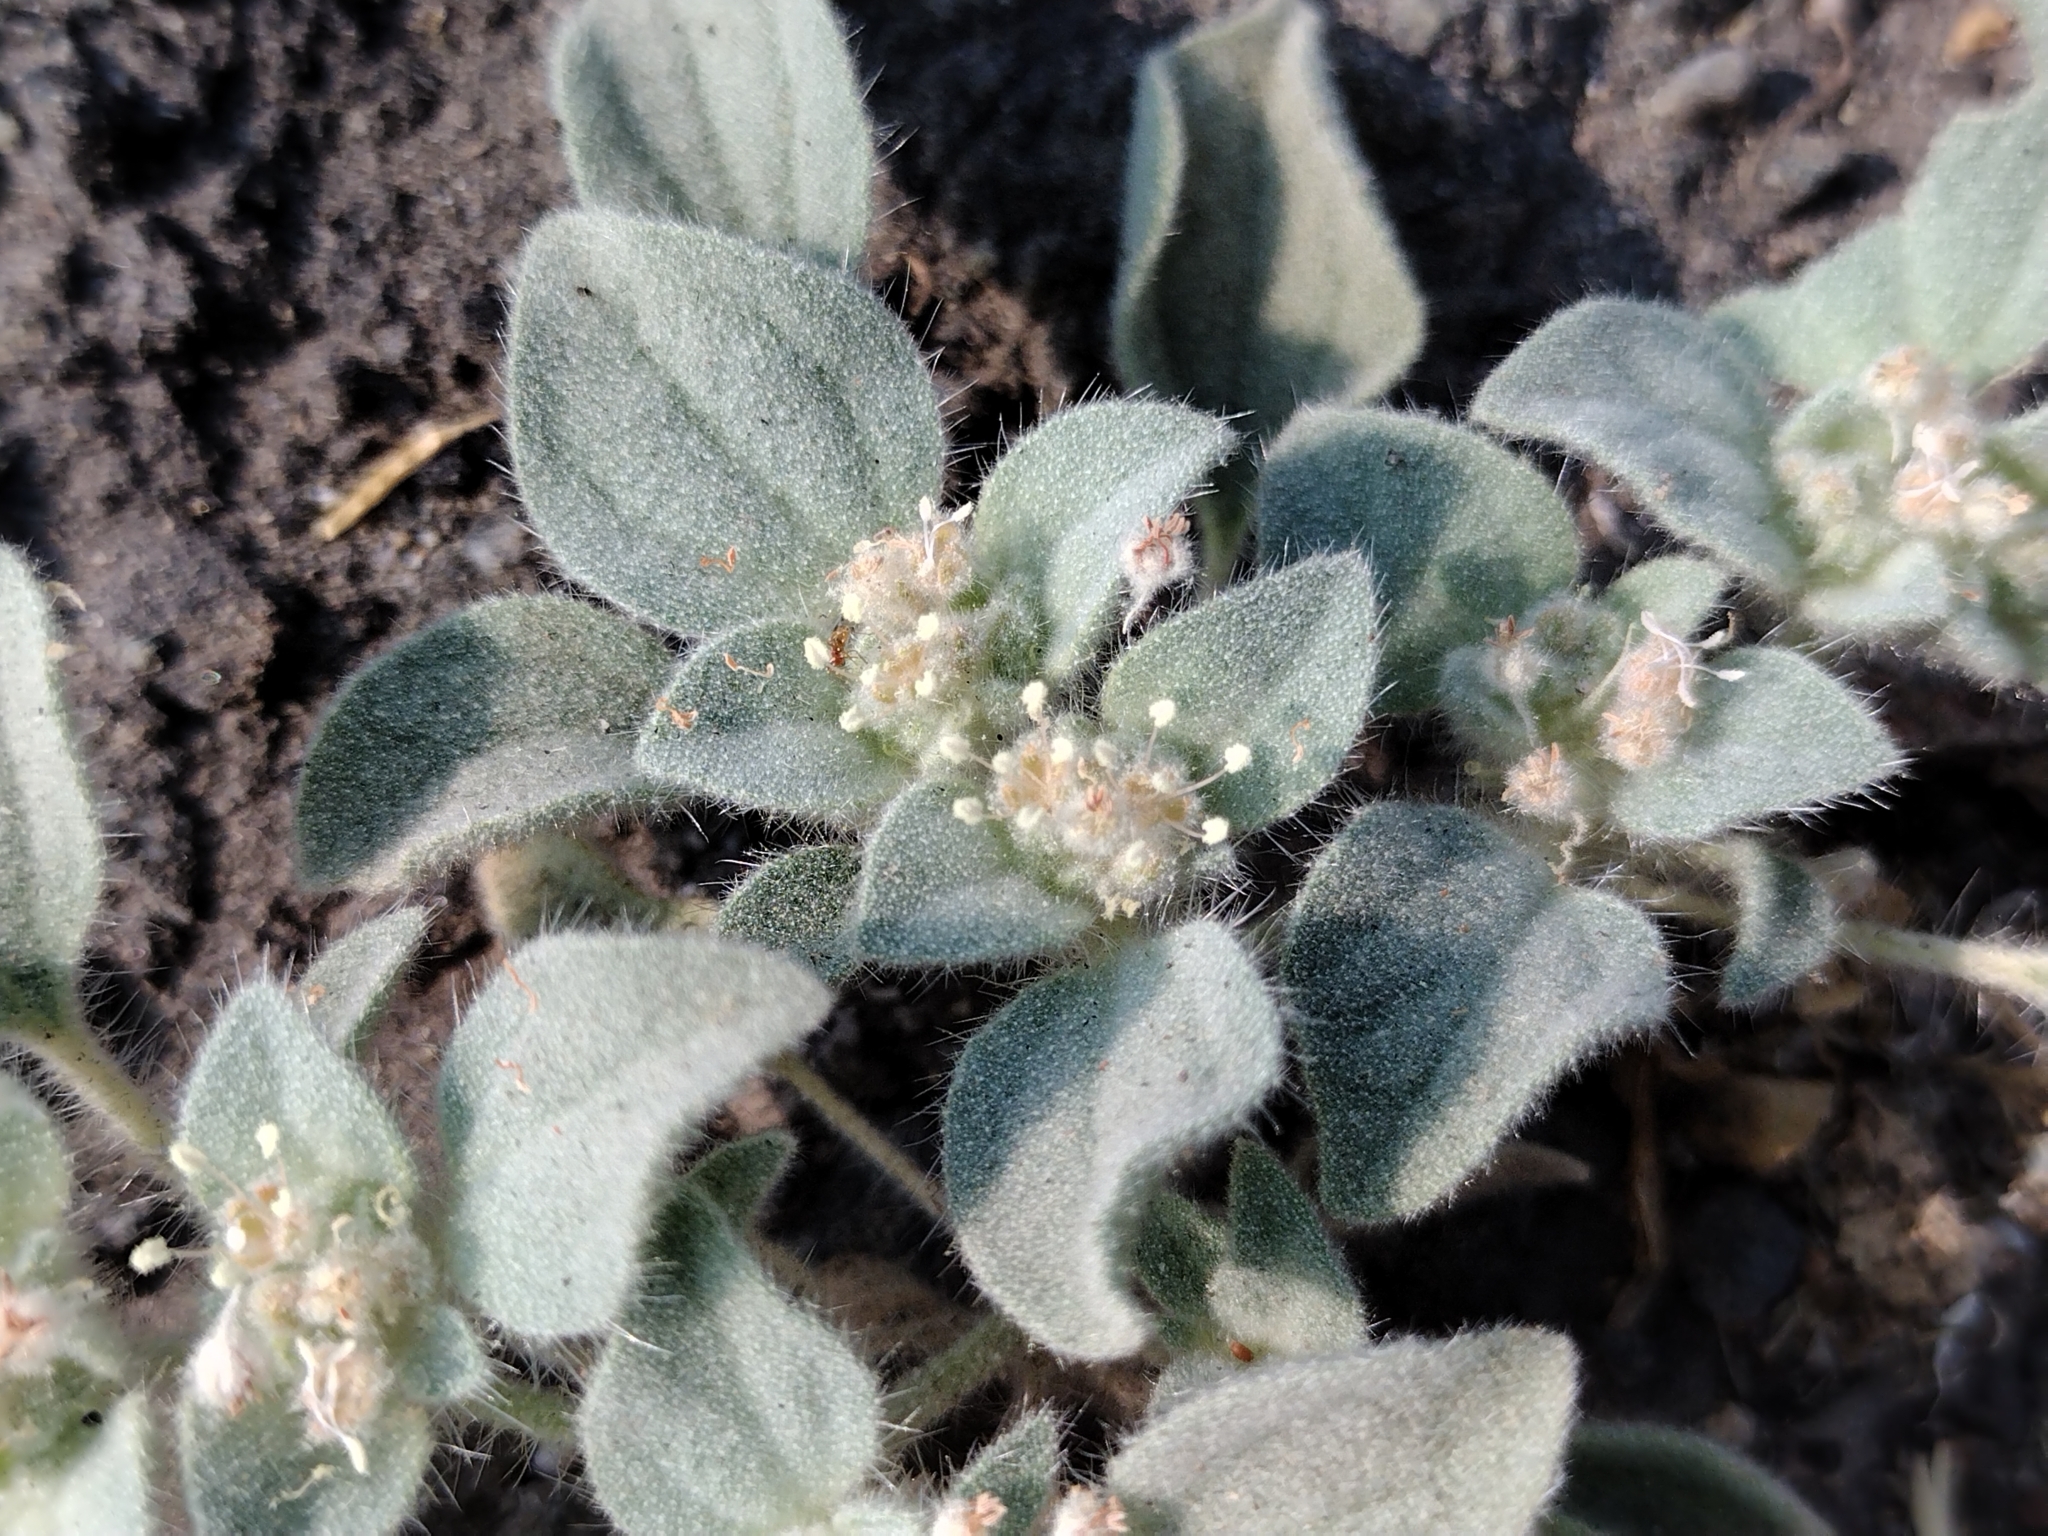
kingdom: Plantae
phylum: Tracheophyta
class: Magnoliopsida
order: Malpighiales
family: Euphorbiaceae
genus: Croton
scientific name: Croton setiger
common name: Dove weed
